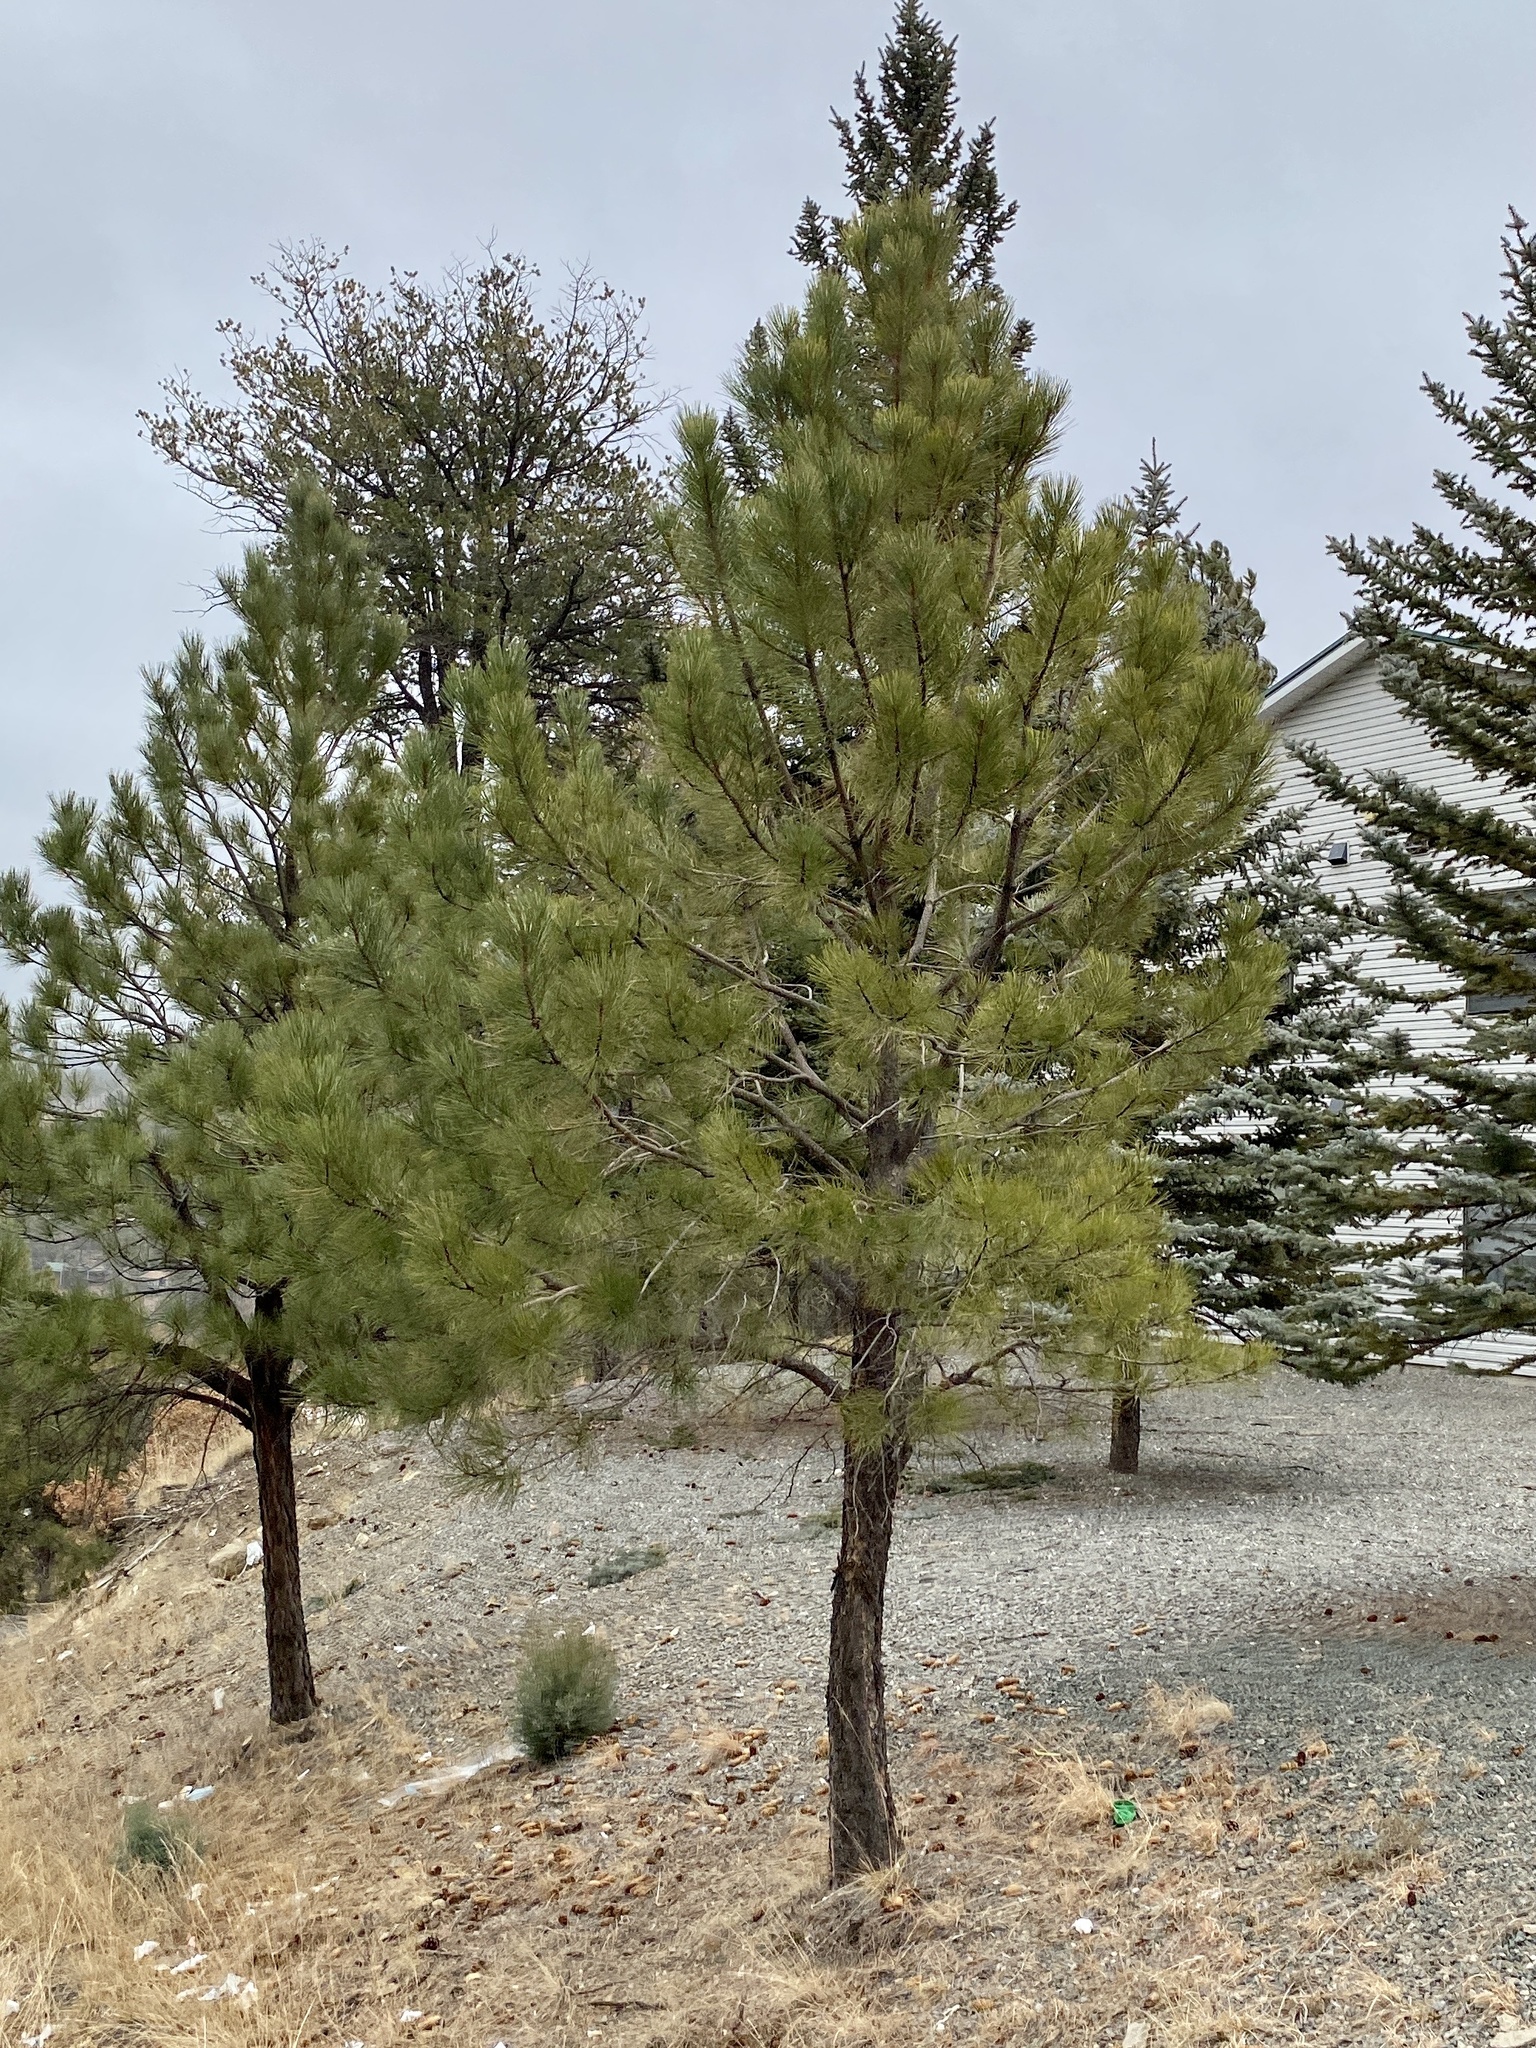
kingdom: Plantae
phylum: Tracheophyta
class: Pinopsida
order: Pinales
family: Pinaceae
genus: Pinus
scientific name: Pinus ponderosa
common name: Western yellow-pine
